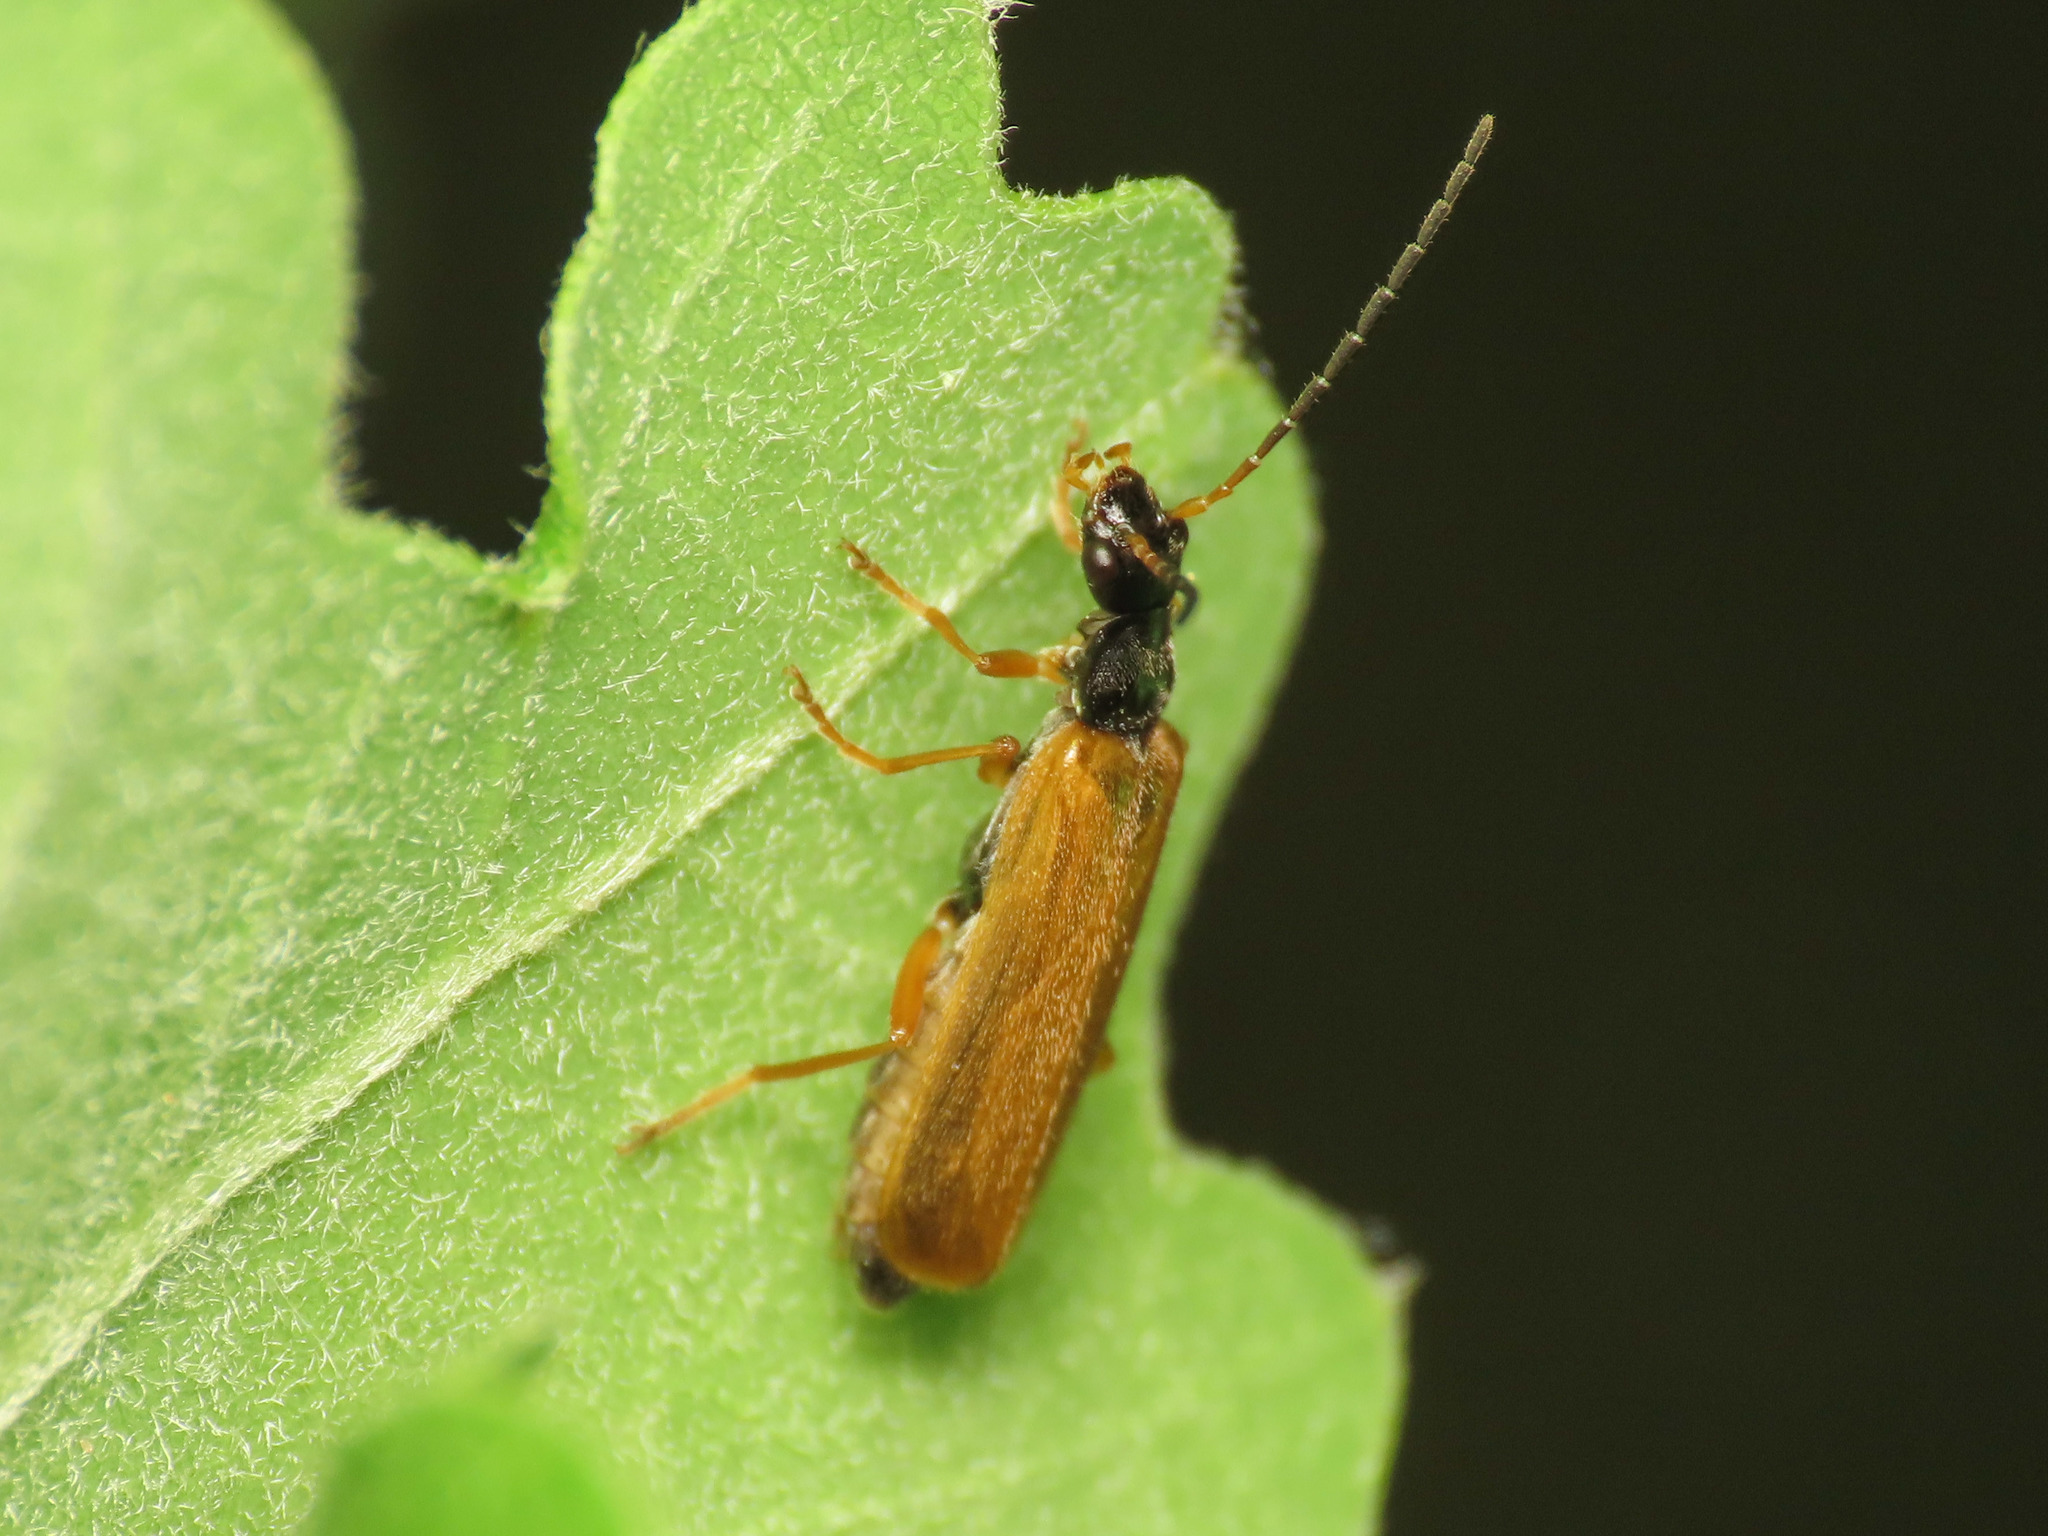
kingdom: Animalia
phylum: Arthropoda
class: Insecta
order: Coleoptera
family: Cantharidae
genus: Rhagonycha
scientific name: Rhagonycha lignosa
